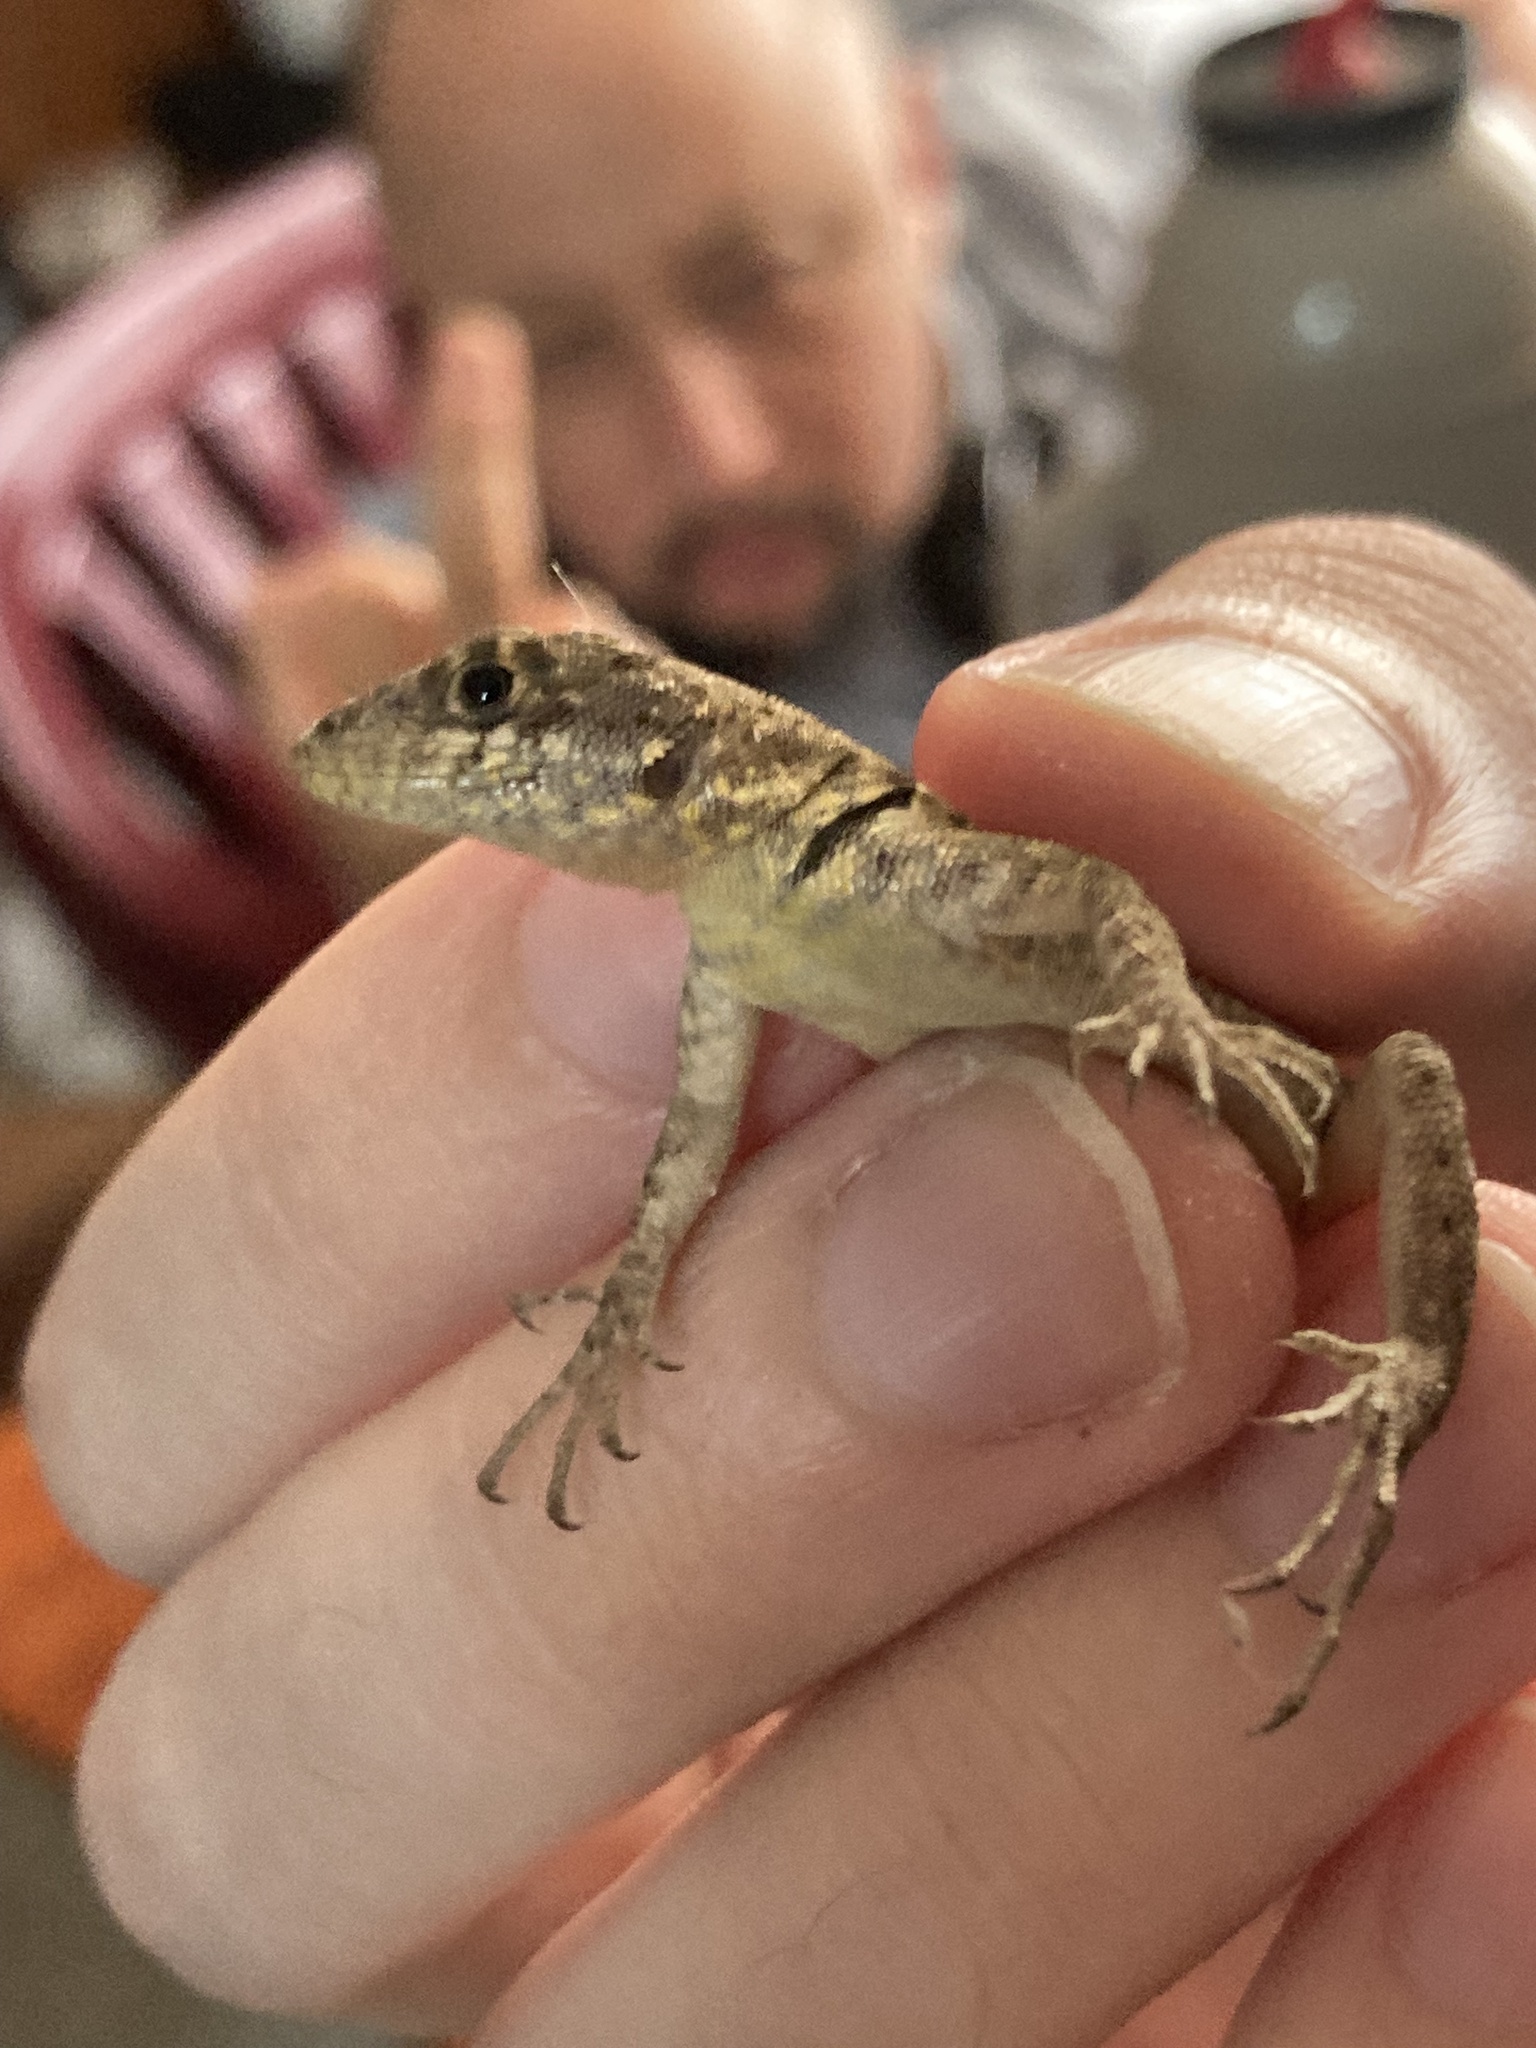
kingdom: Animalia
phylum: Chordata
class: Squamata
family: Tropiduridae
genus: Tropidurus
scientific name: Tropidurus catalanensis
